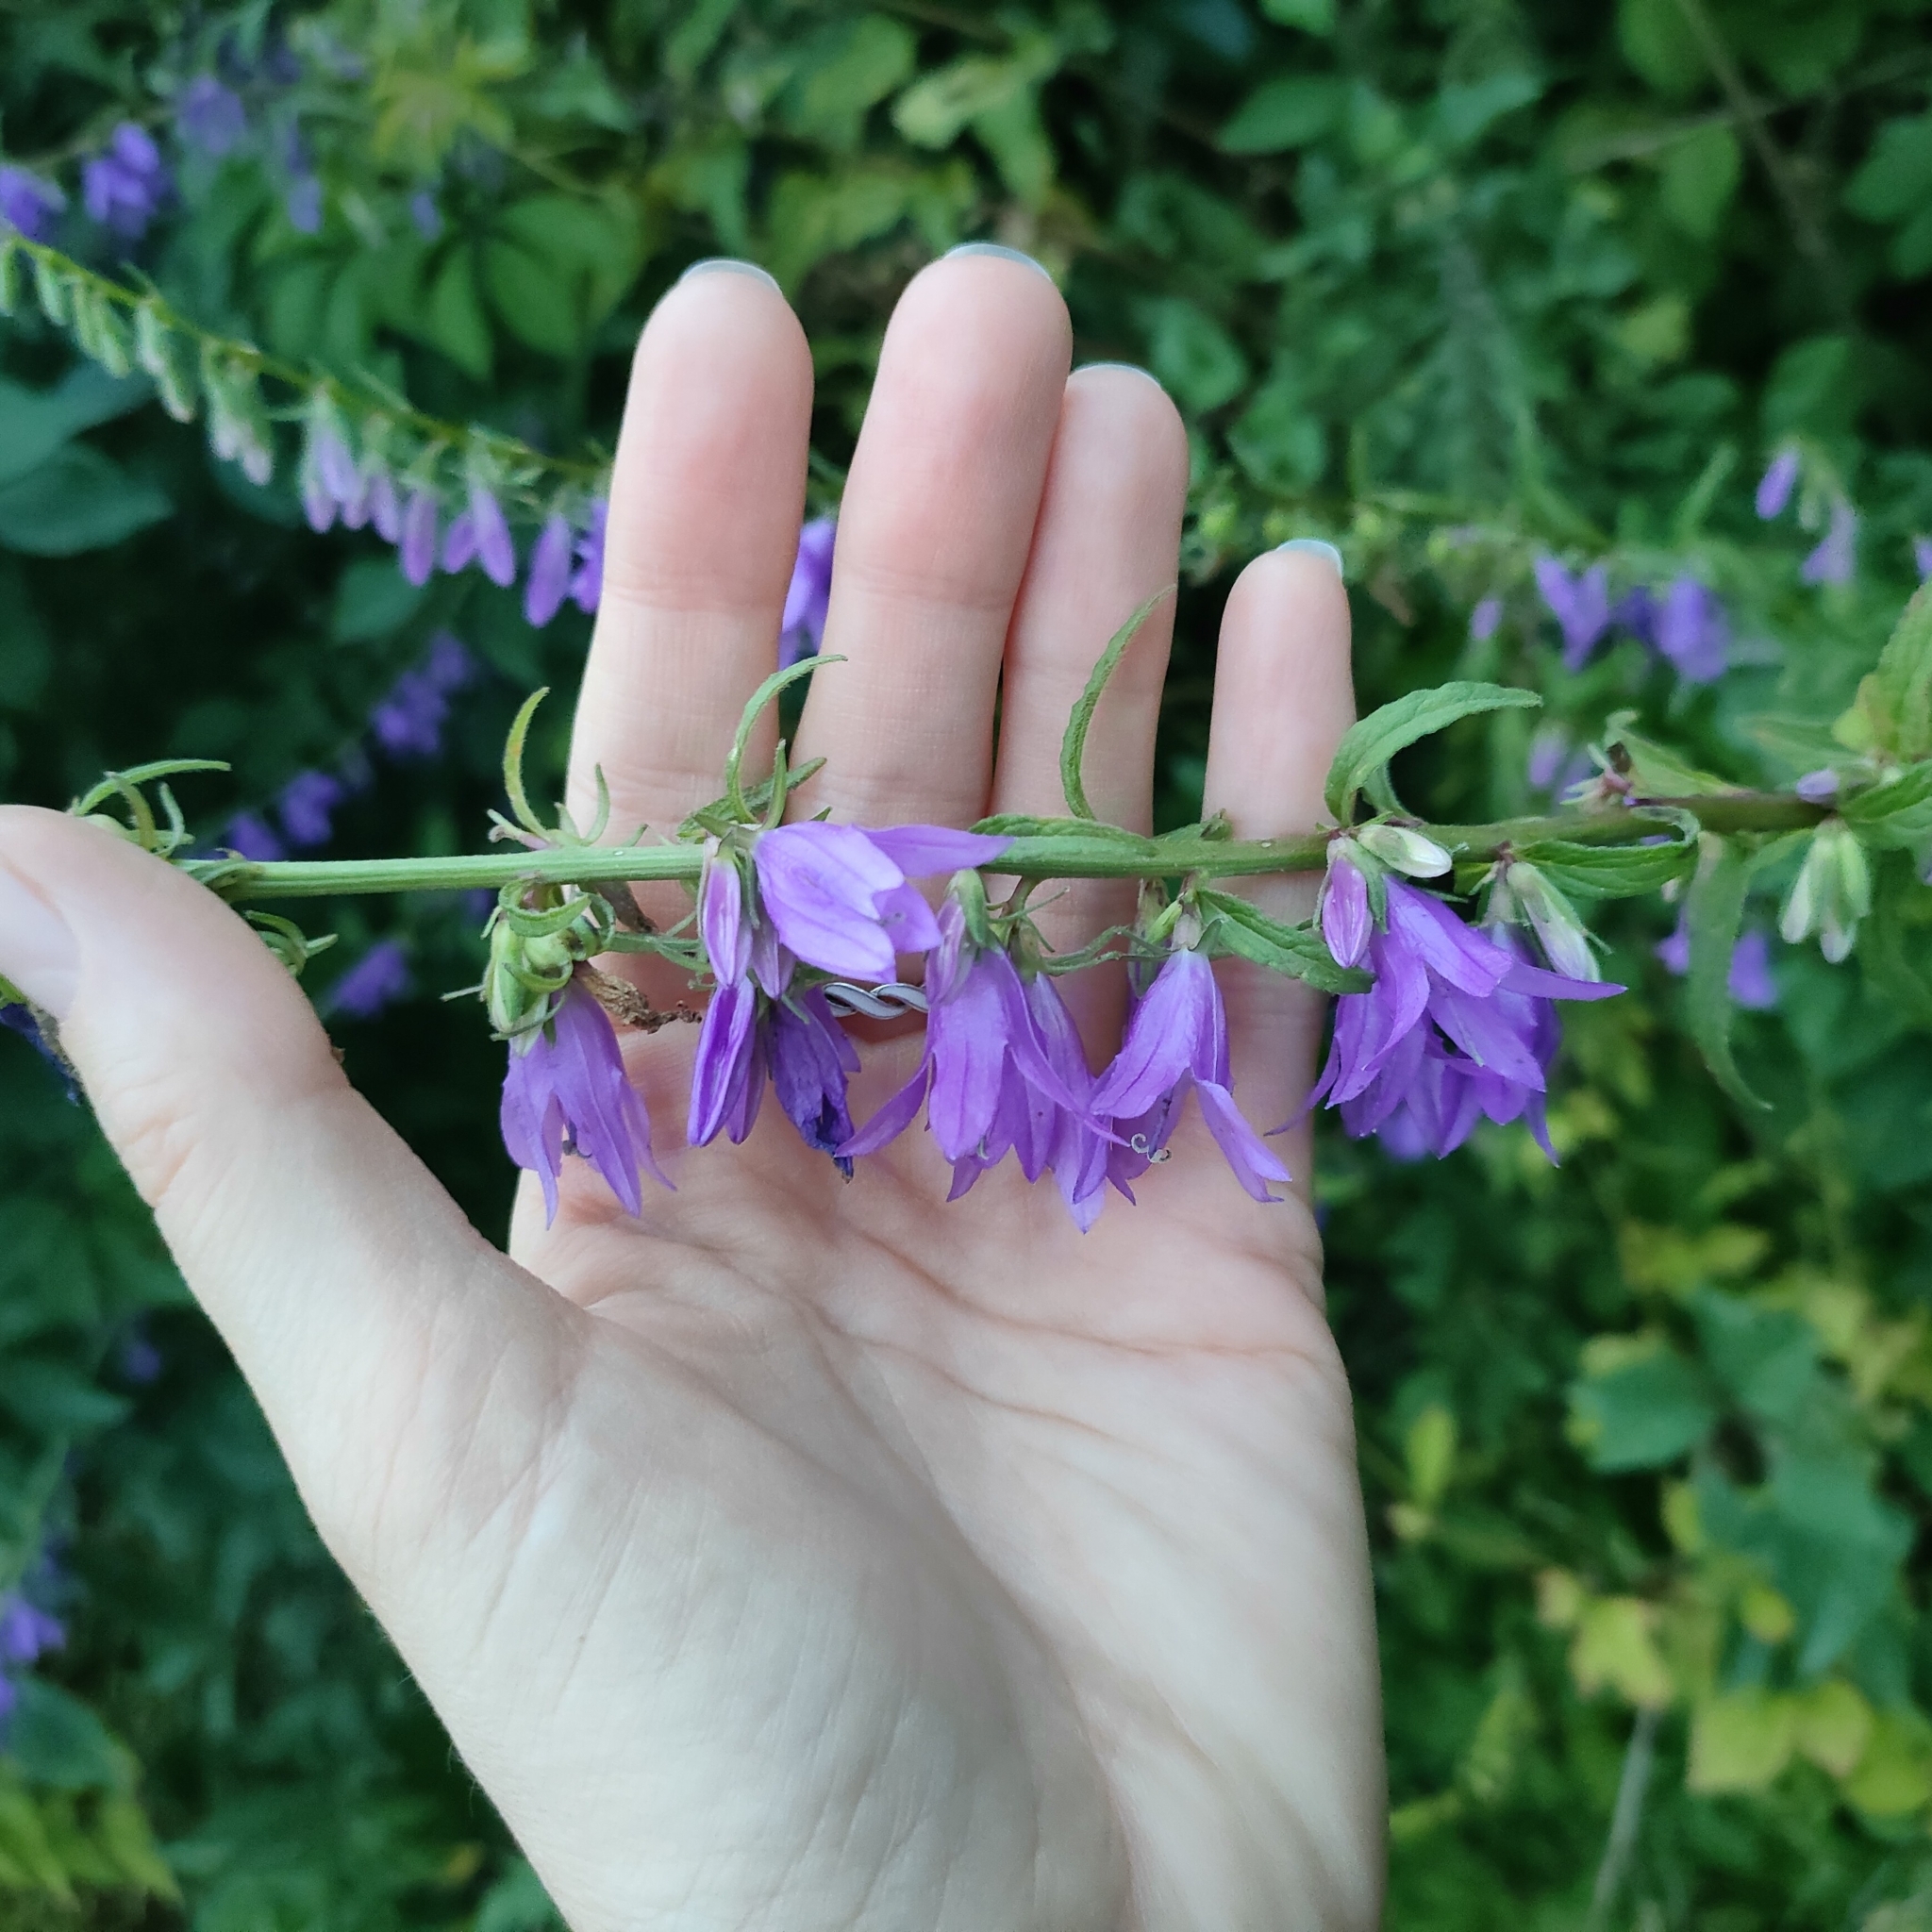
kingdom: Plantae
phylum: Tracheophyta
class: Magnoliopsida
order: Asterales
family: Campanulaceae
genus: Campanula
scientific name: Campanula rapunculoides
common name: Creeping bellflower
